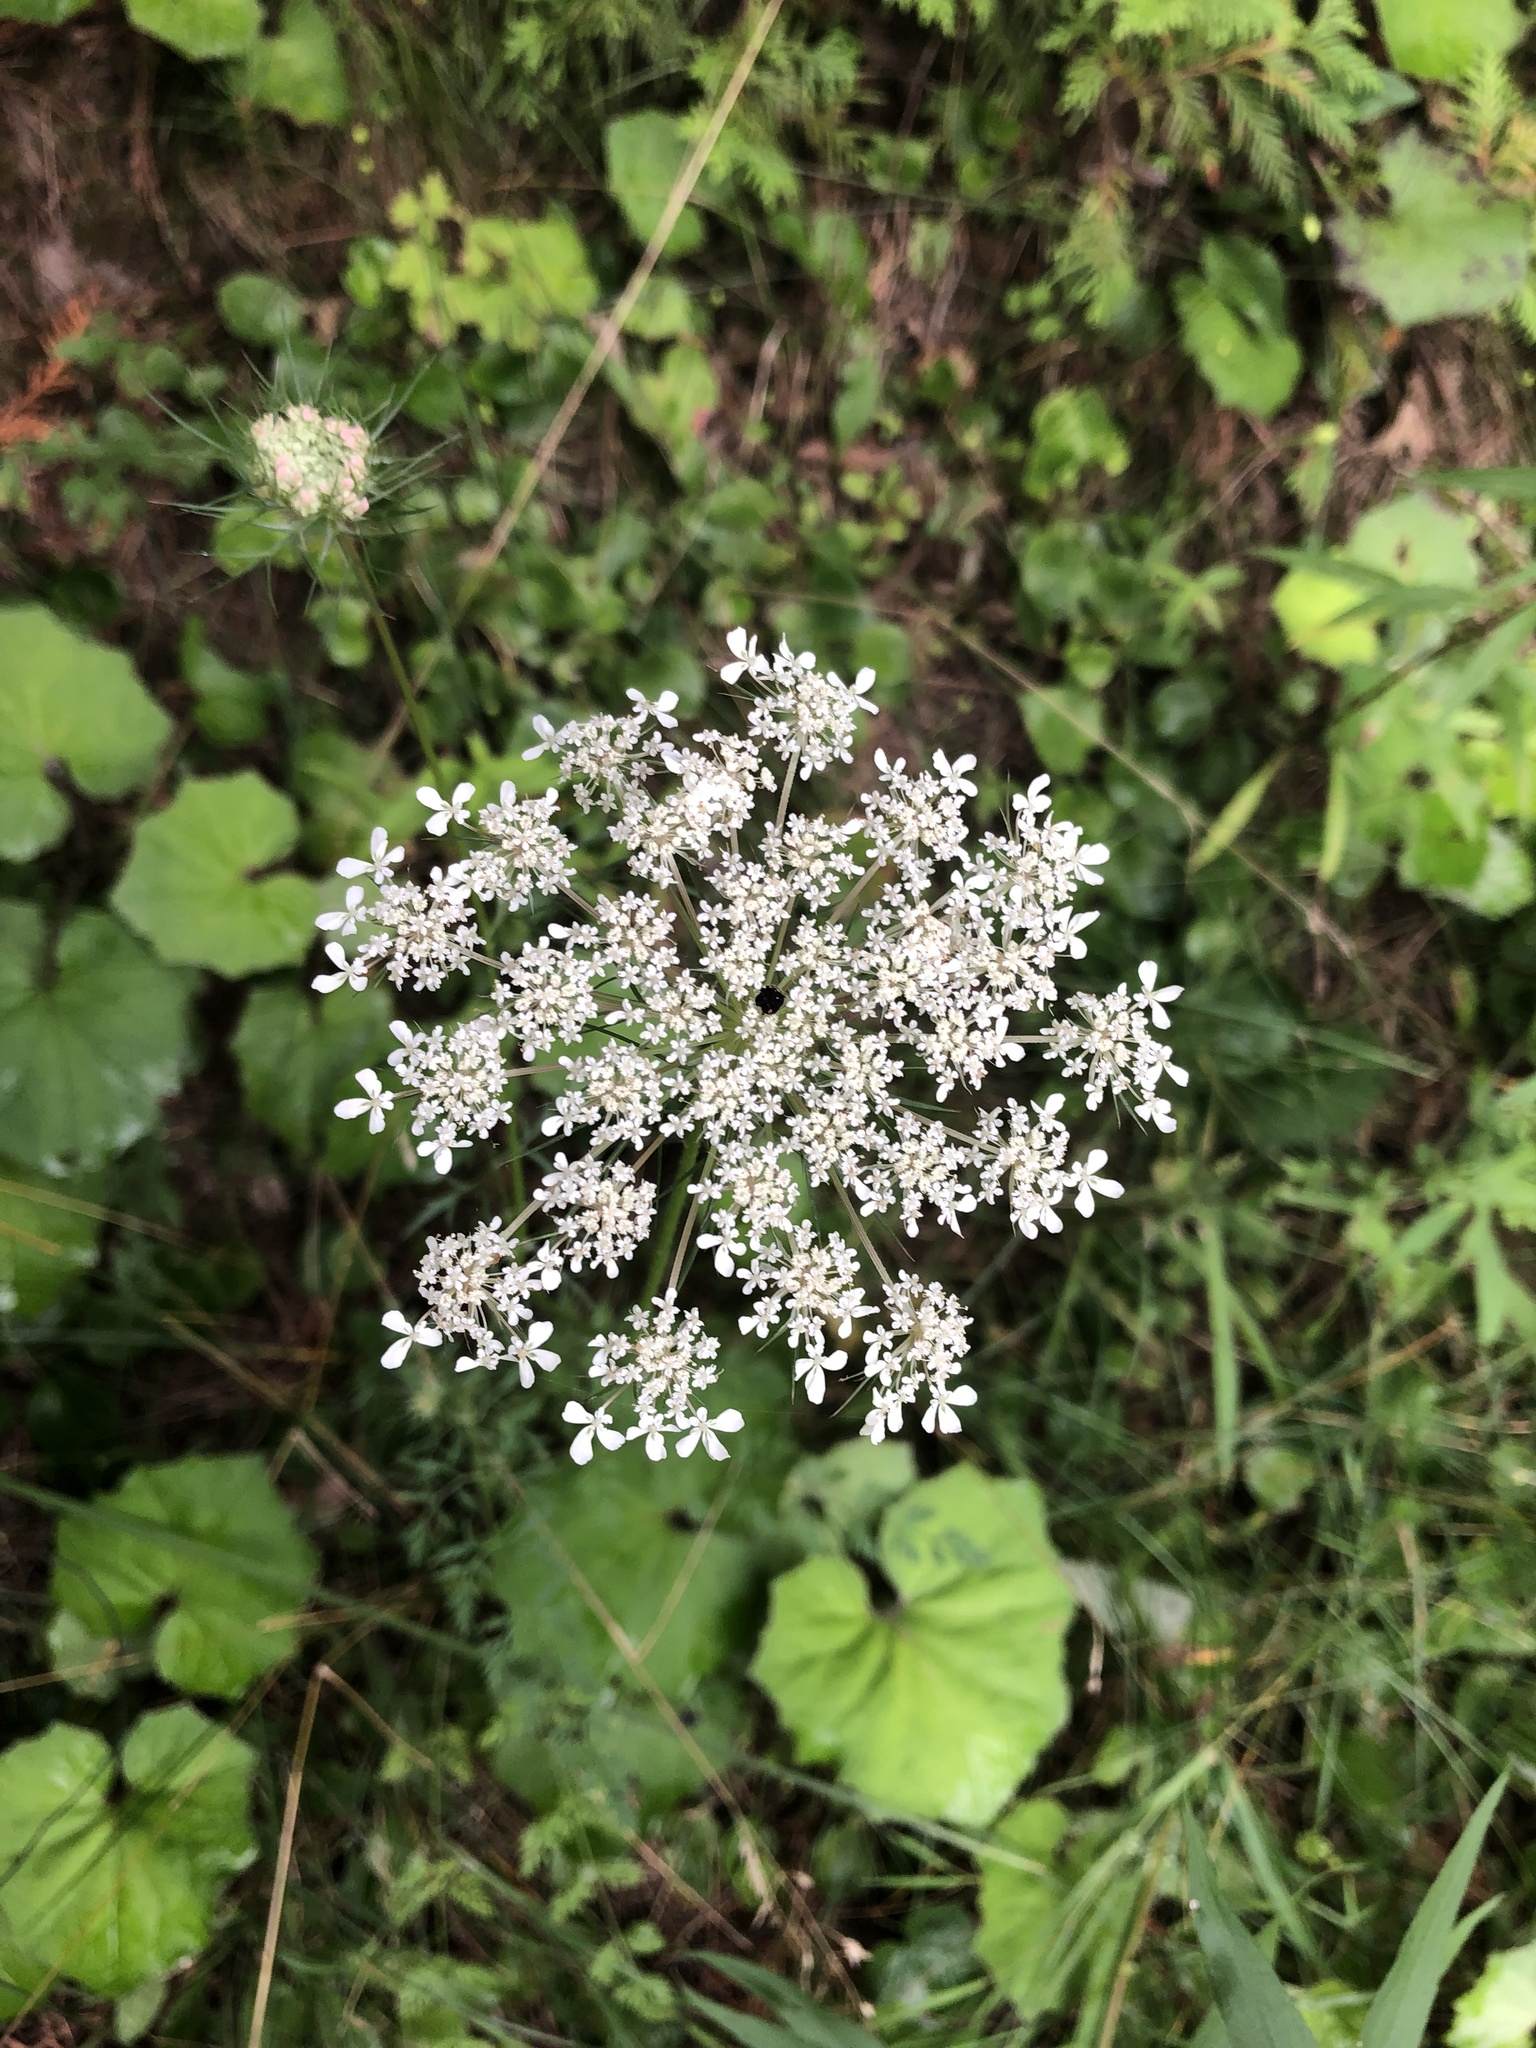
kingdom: Plantae
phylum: Tracheophyta
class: Magnoliopsida
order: Apiales
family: Apiaceae
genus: Daucus
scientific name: Daucus carota
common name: Wild carrot
